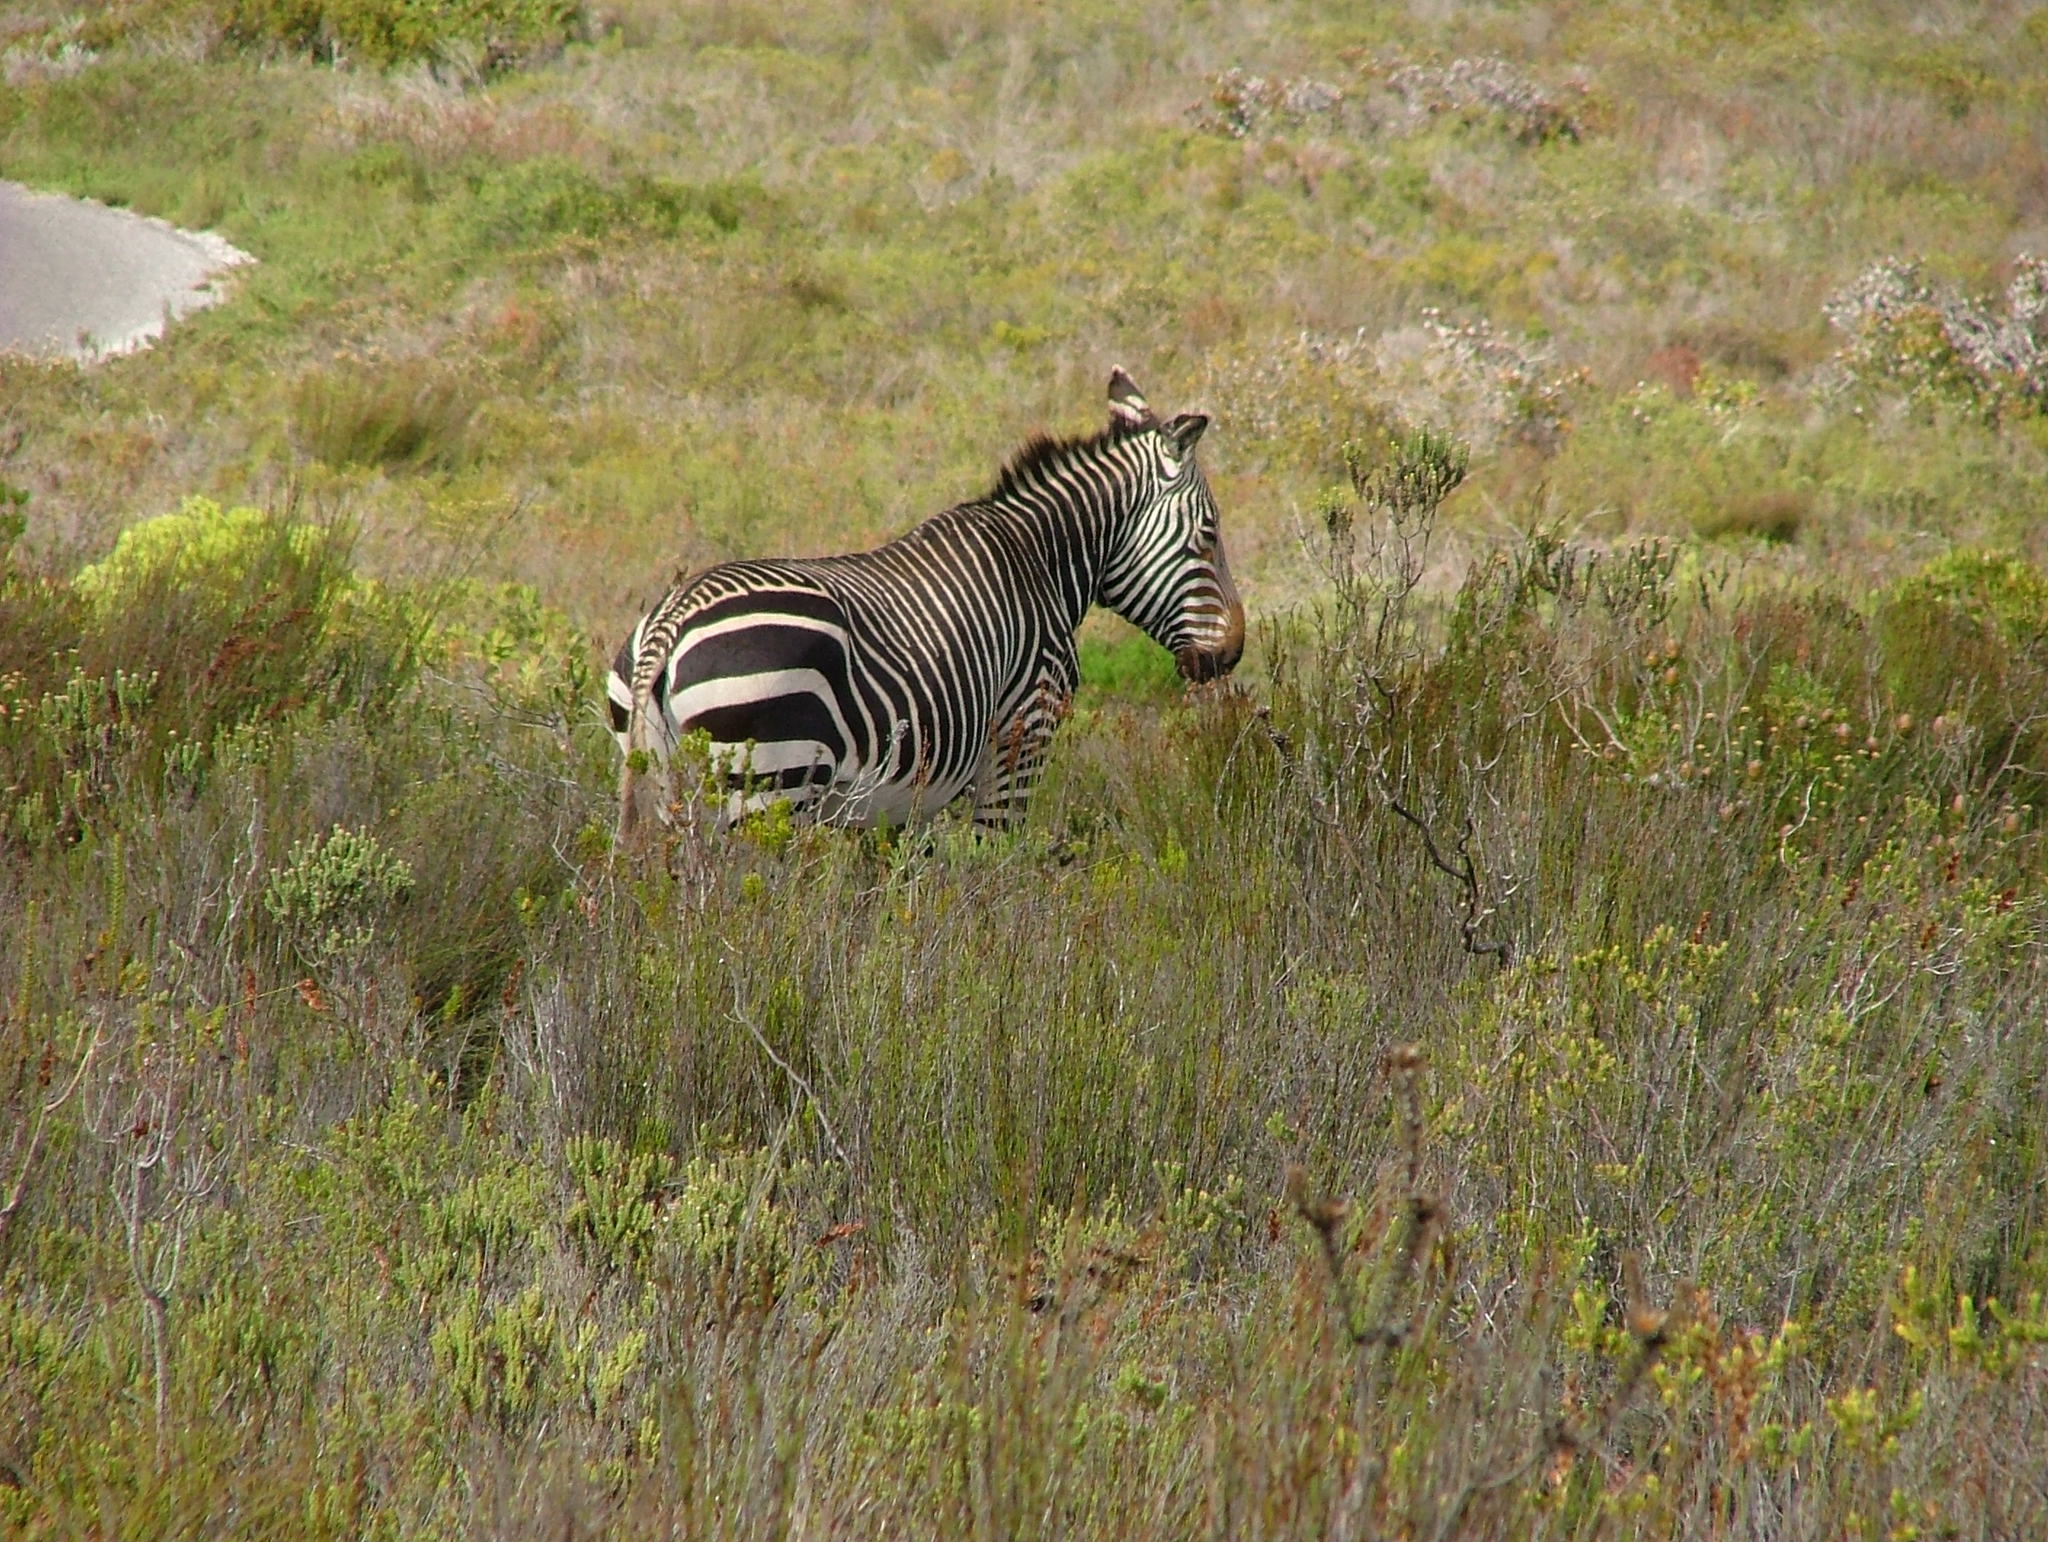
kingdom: Animalia
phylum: Chordata
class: Mammalia
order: Perissodactyla
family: Equidae
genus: Equus
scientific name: Equus zebra
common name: Mountain zebra
